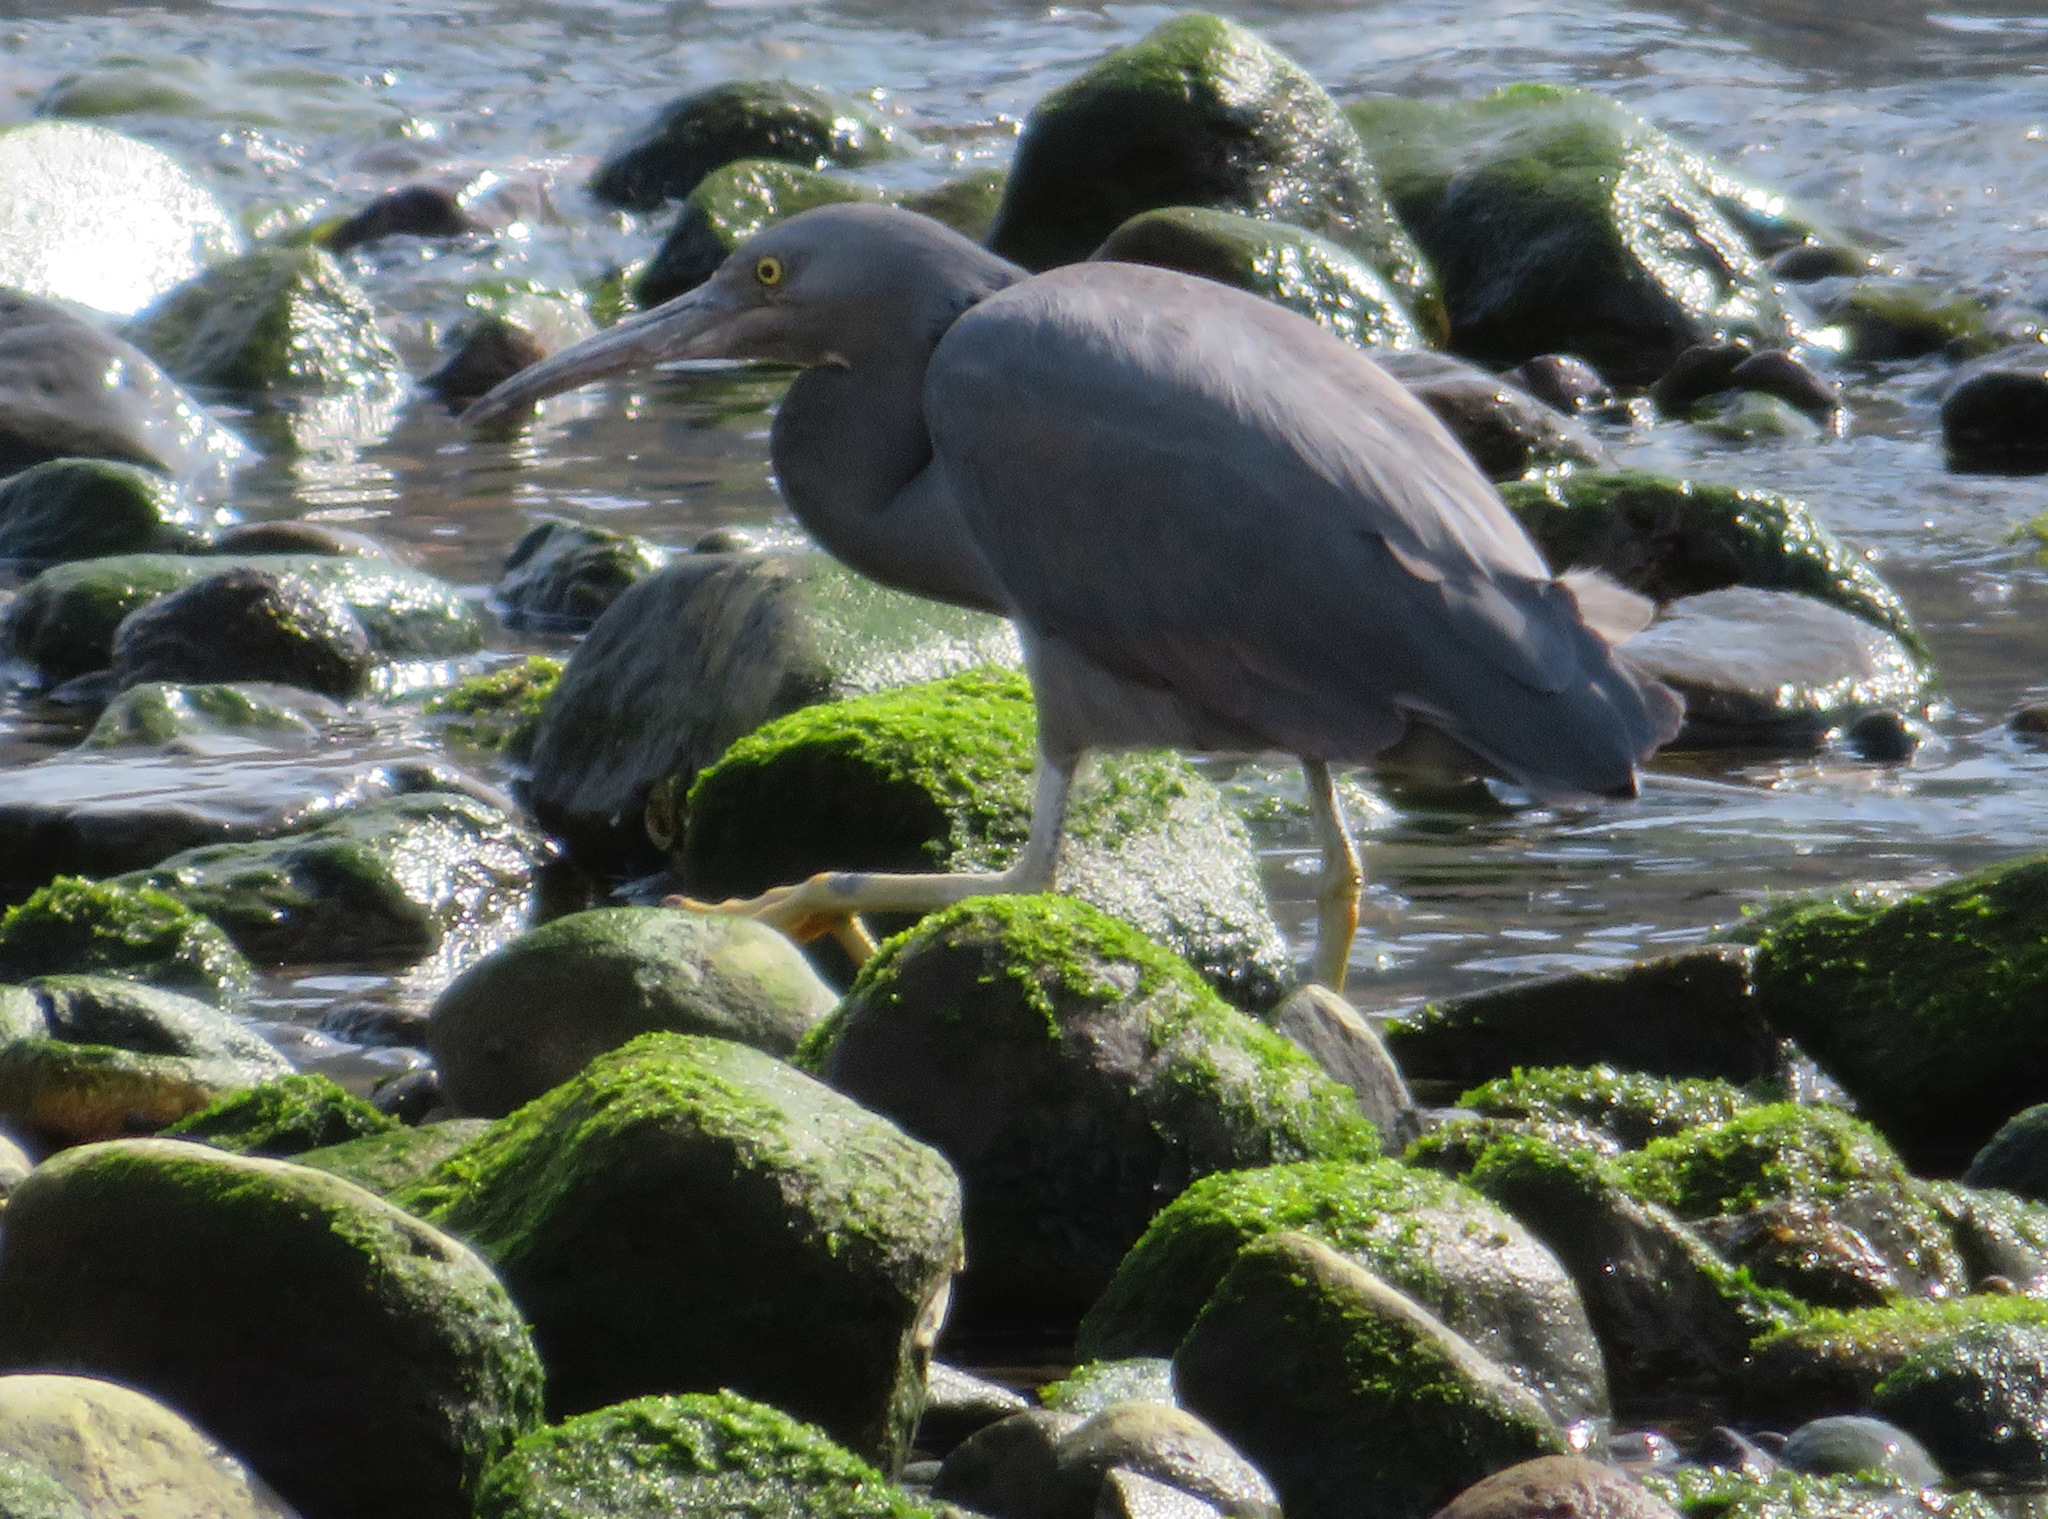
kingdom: Animalia
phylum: Chordata
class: Aves
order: Pelecaniformes
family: Ardeidae
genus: Egretta
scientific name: Egretta sacra
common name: Pacific reef heron
